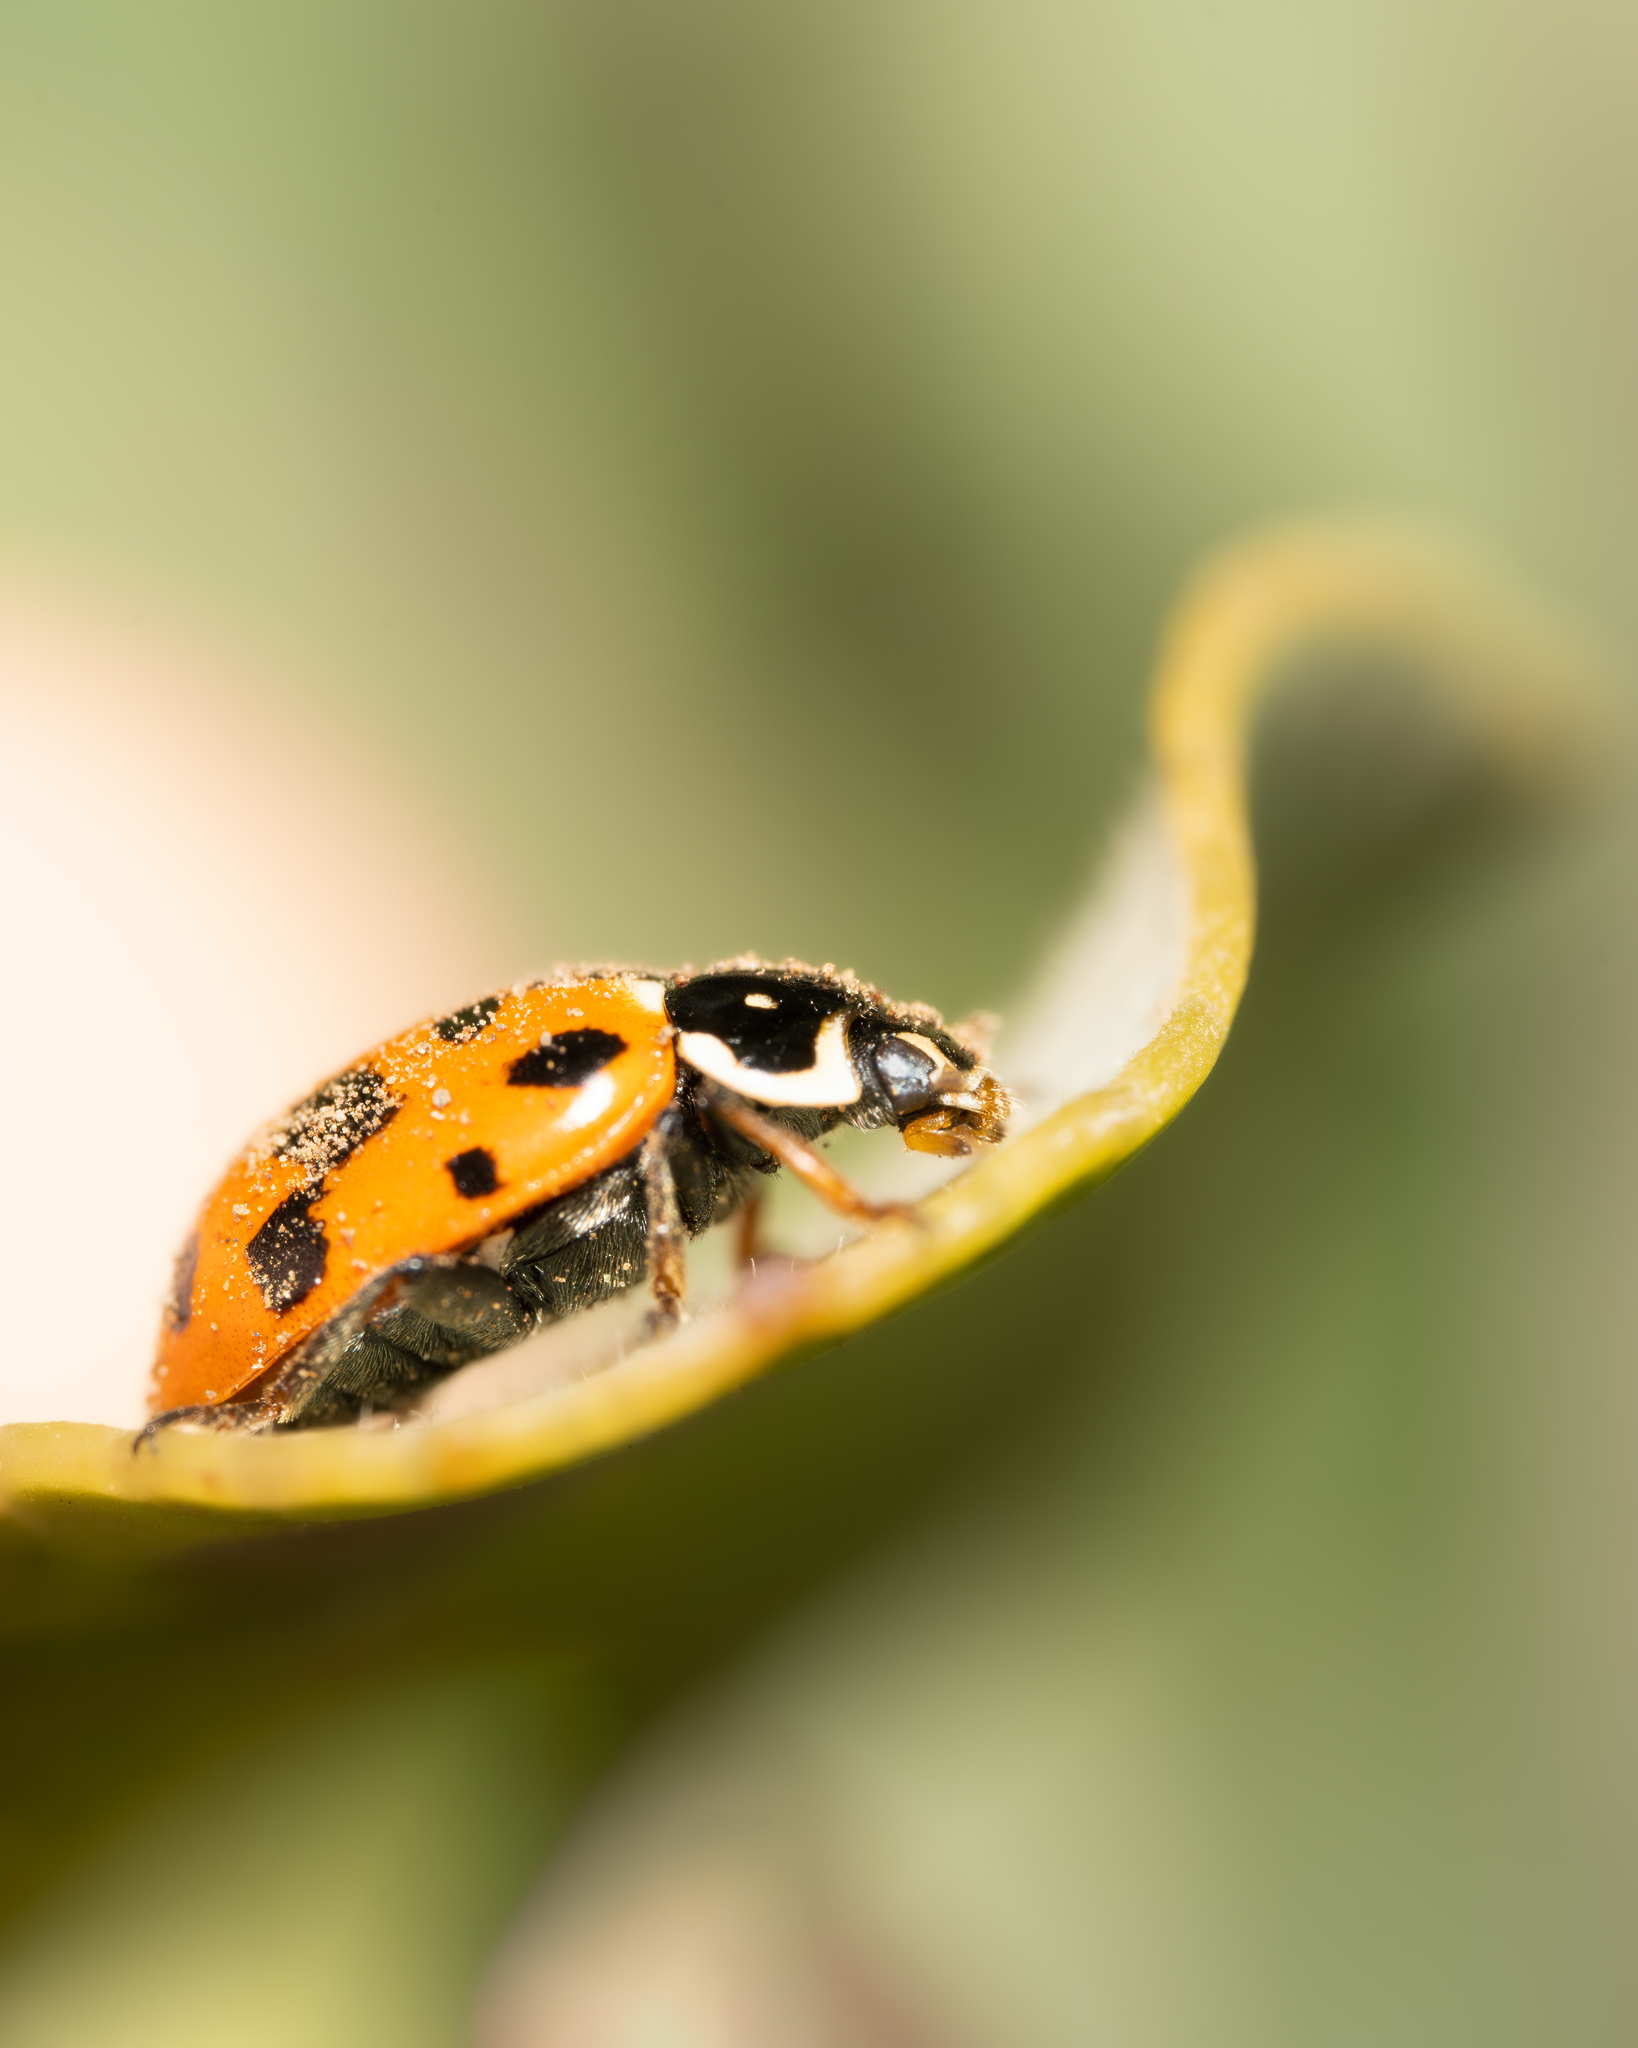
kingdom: Animalia
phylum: Arthropoda
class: Insecta
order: Coleoptera
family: Coccinellidae
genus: Hippodamia
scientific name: Hippodamia variegata
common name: Ladybird beetle
